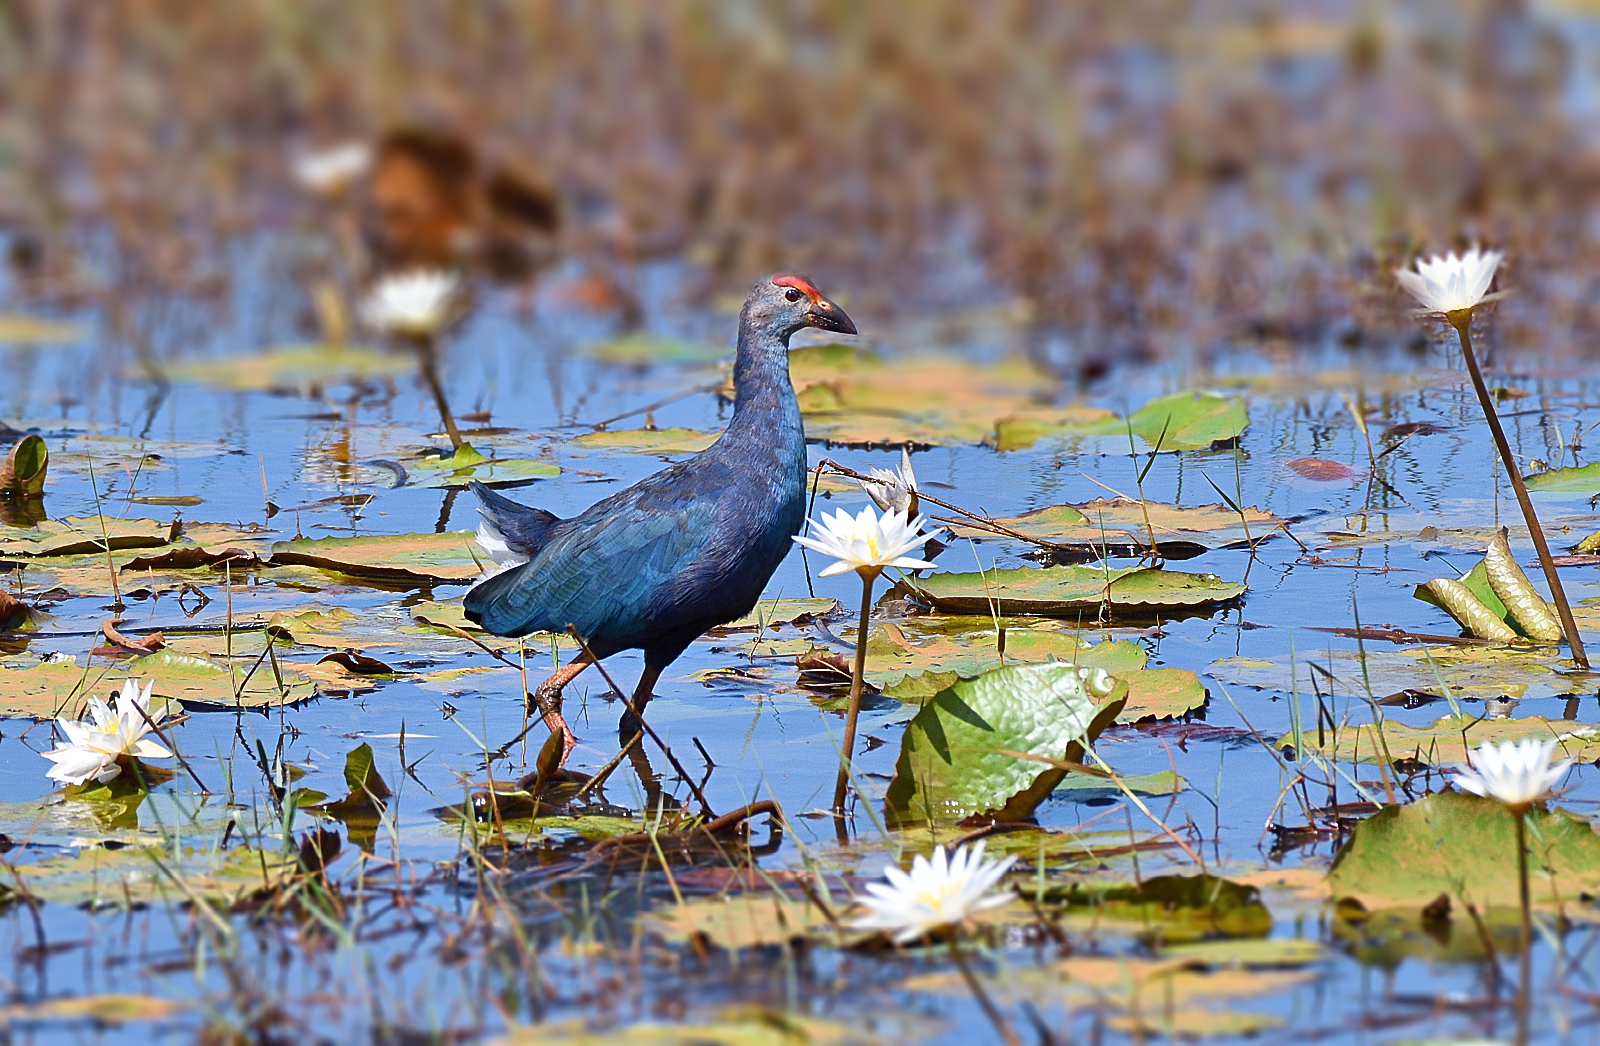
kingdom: Animalia
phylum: Chordata
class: Aves
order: Gruiformes
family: Rallidae
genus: Porphyrio
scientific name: Porphyrio porphyrio
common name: Purple swamphen
